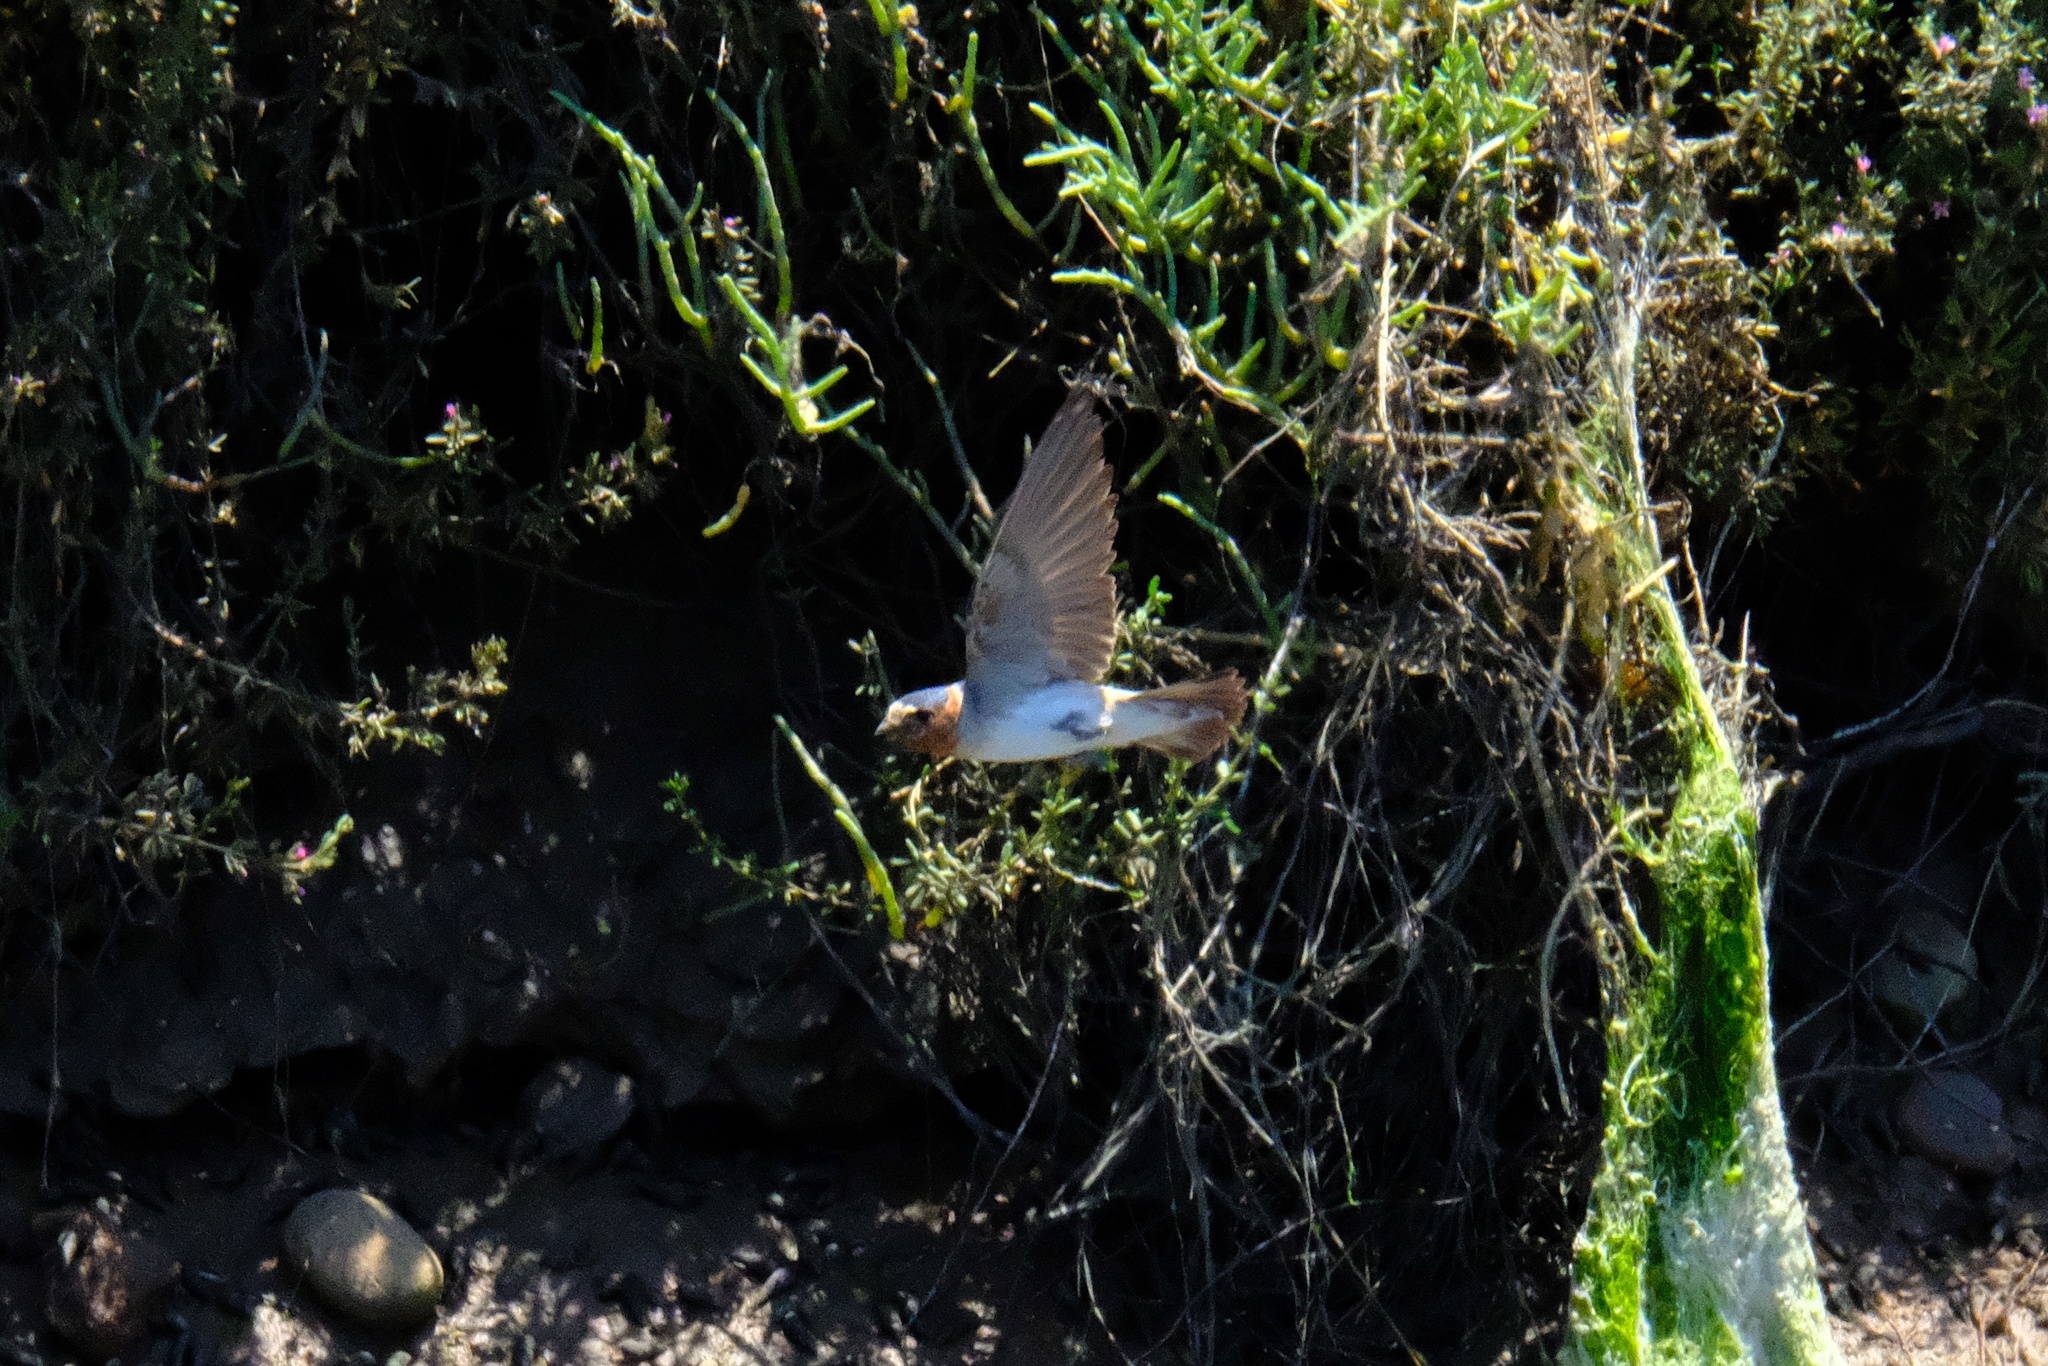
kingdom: Animalia
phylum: Chordata
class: Aves
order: Passeriformes
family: Hirundinidae
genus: Petrochelidon
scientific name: Petrochelidon pyrrhonota
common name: American cliff swallow
